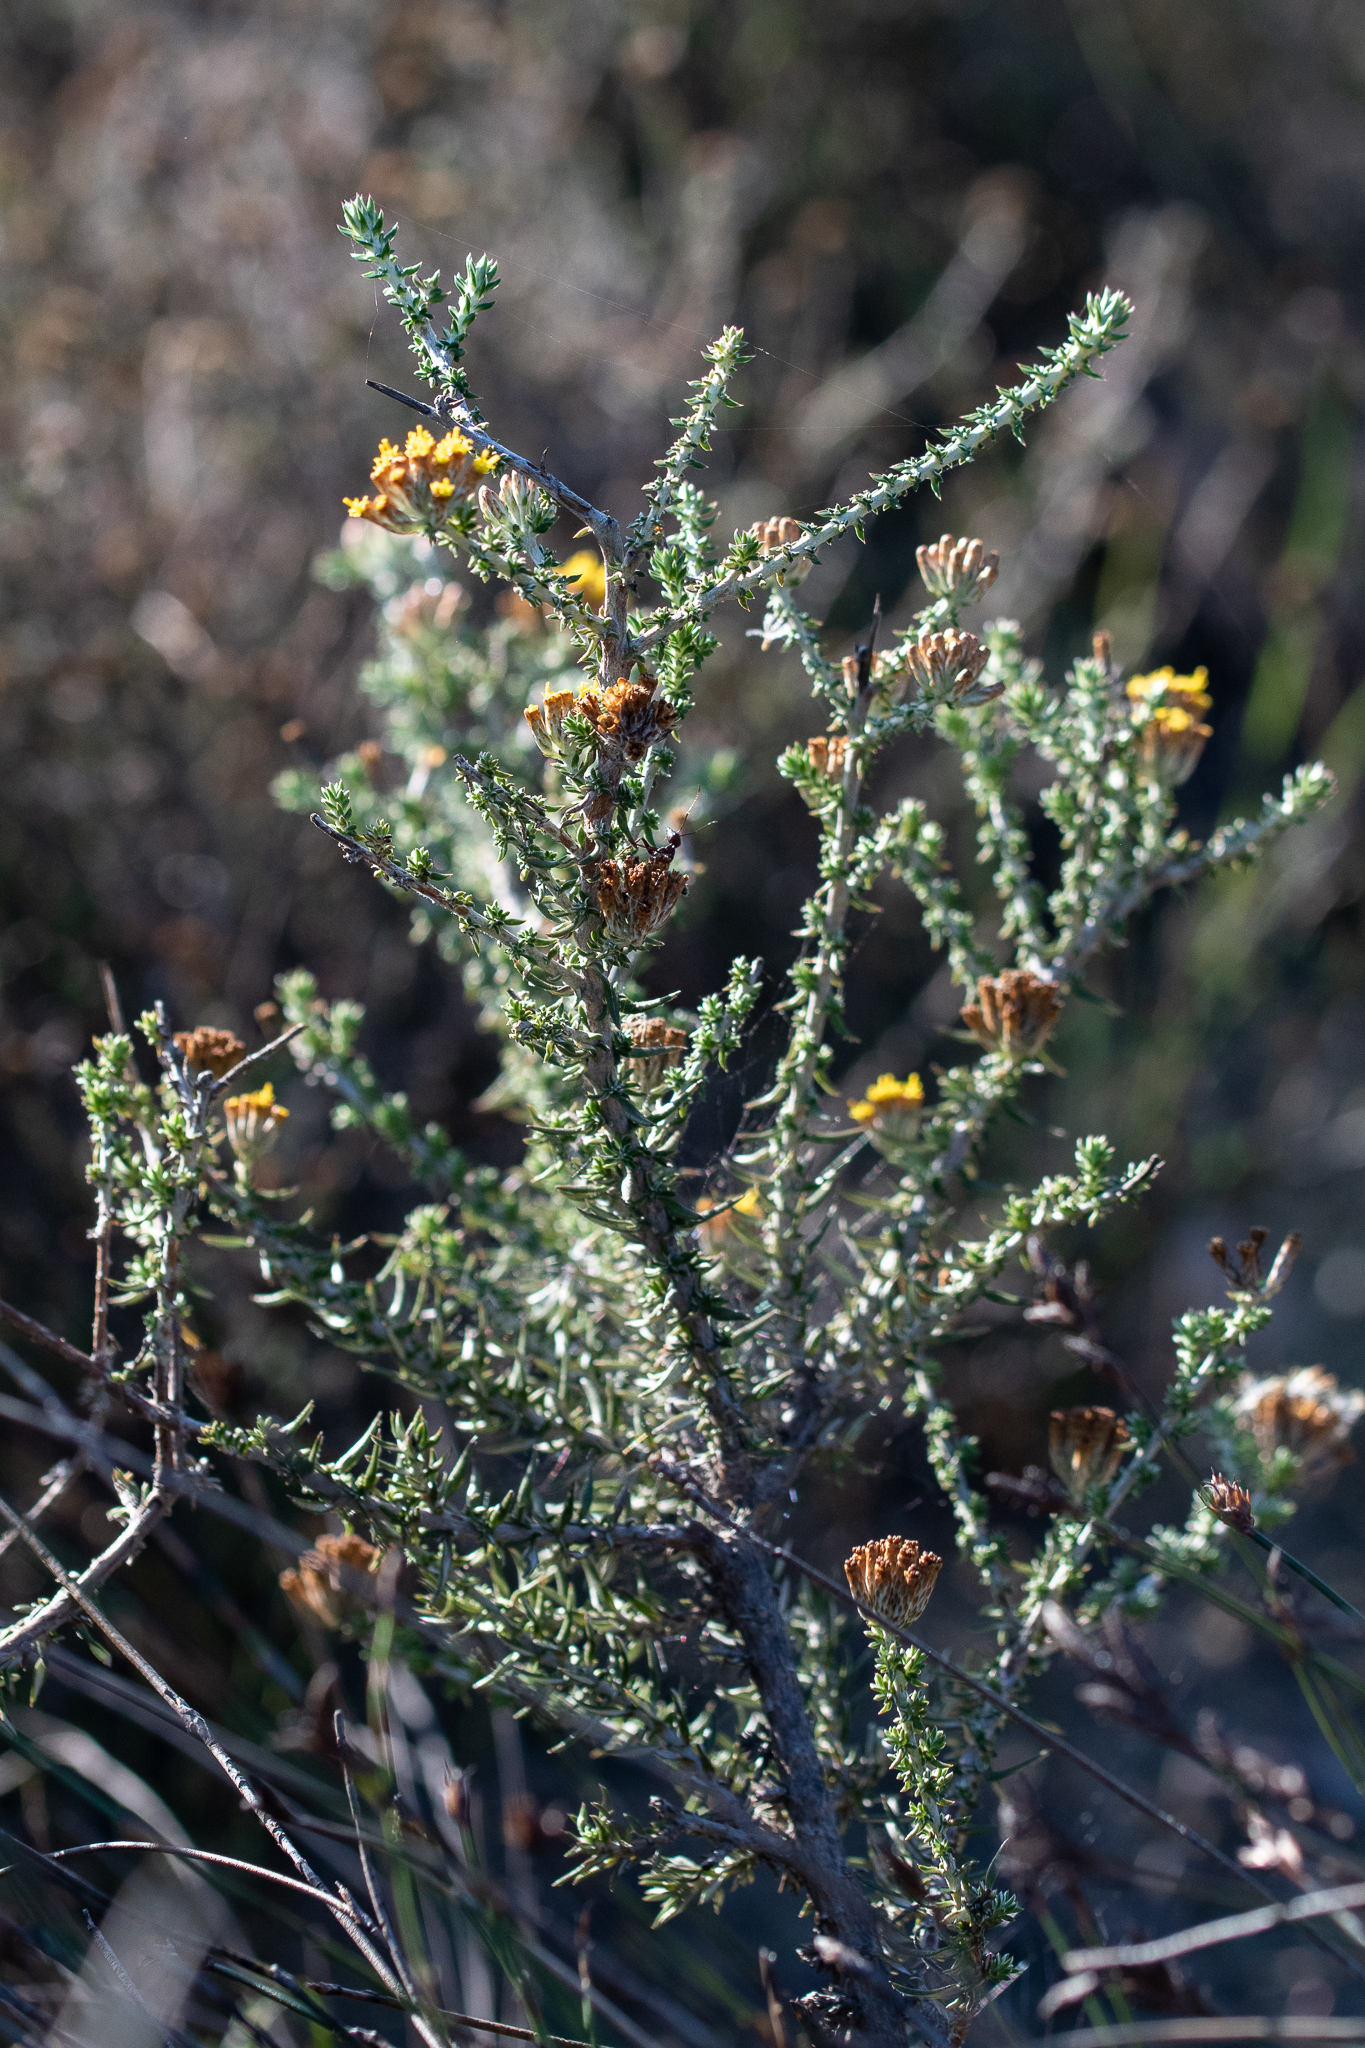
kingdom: Plantae
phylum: Tracheophyta
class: Magnoliopsida
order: Asterales
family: Asteraceae
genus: Metalasia
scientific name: Metalasia octoflora
